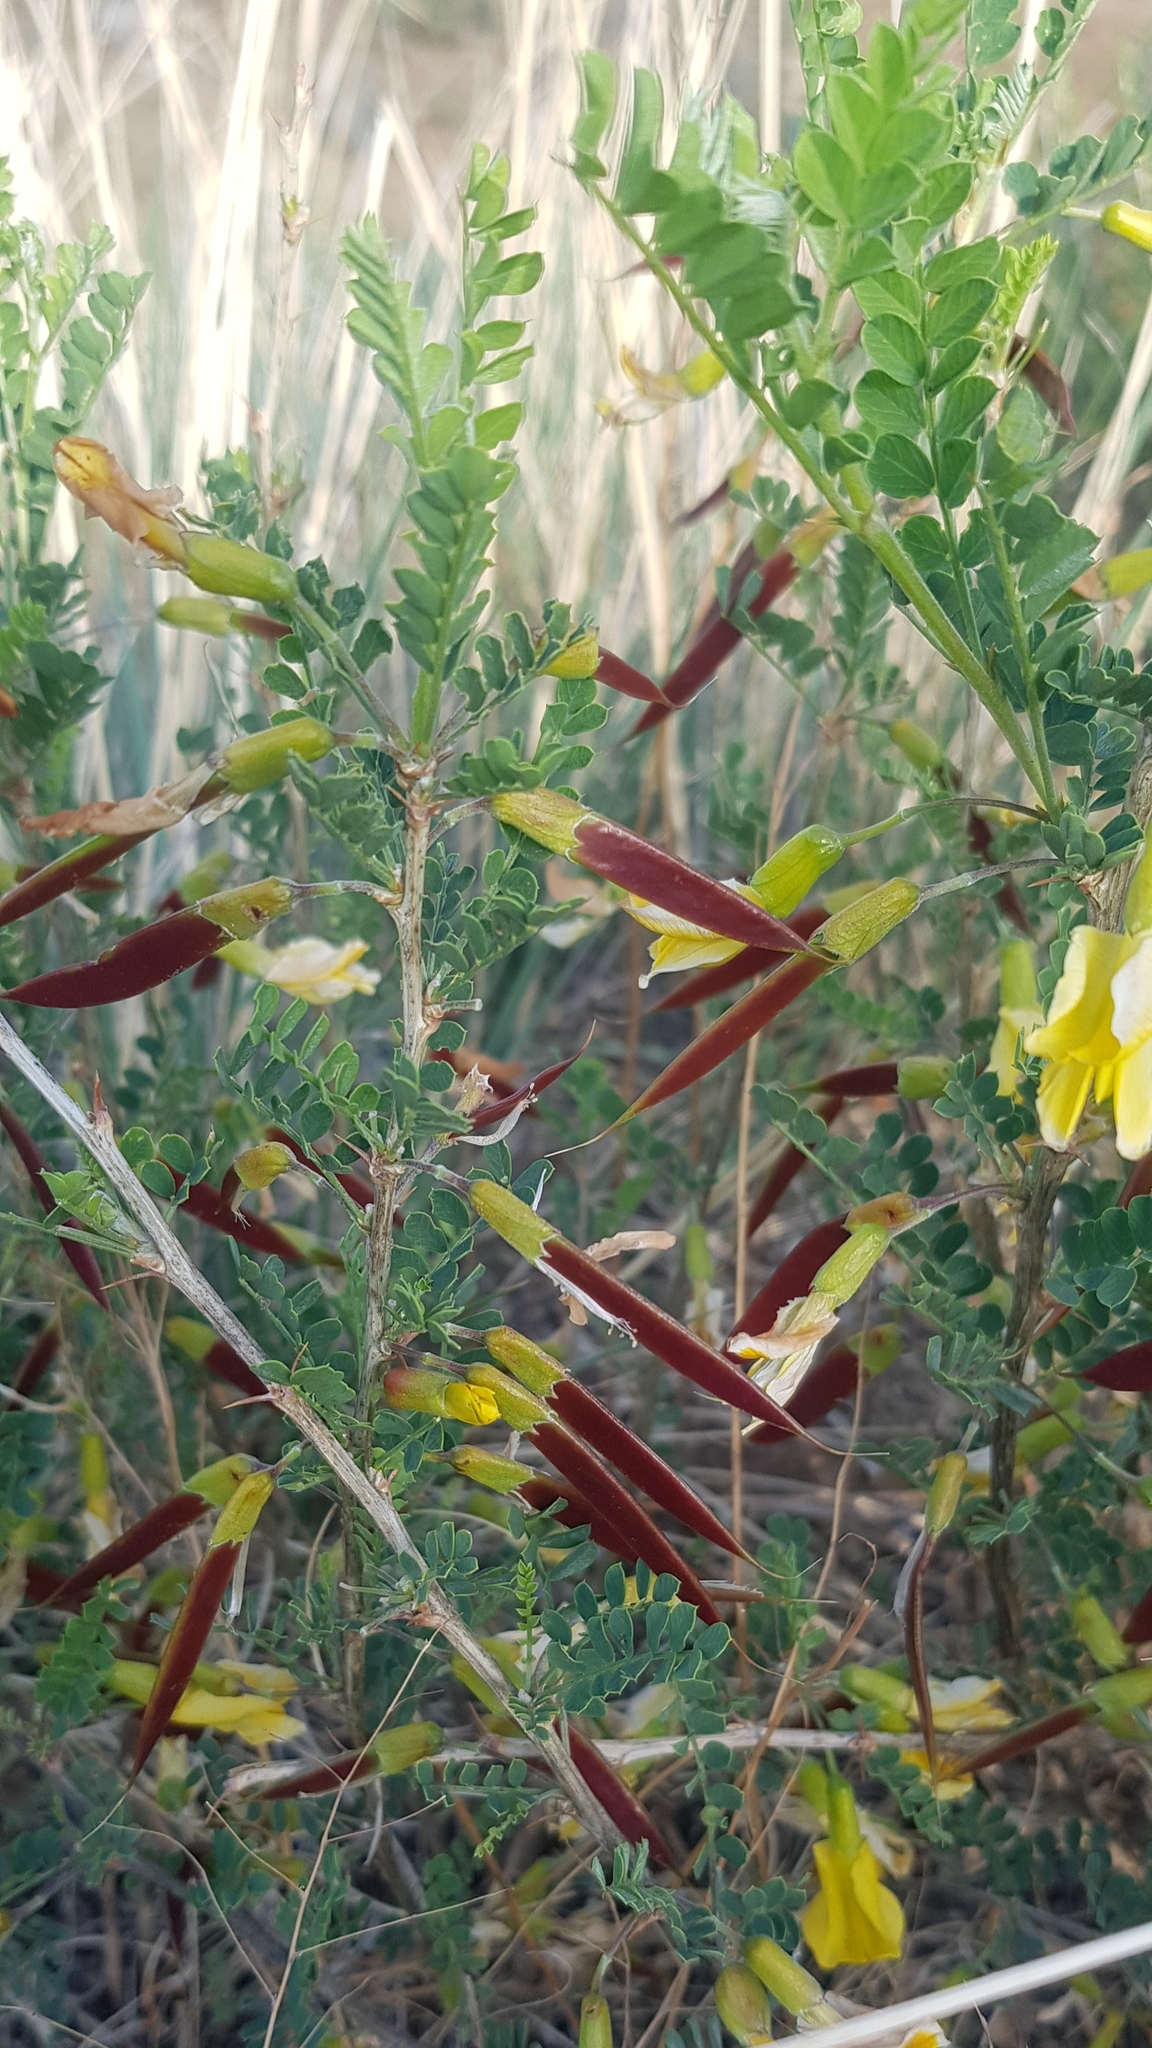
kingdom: Plantae
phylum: Tracheophyta
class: Magnoliopsida
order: Fabales
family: Fabaceae
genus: Caragana
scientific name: Caragana microphylla
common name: Littleleaf peashrub
